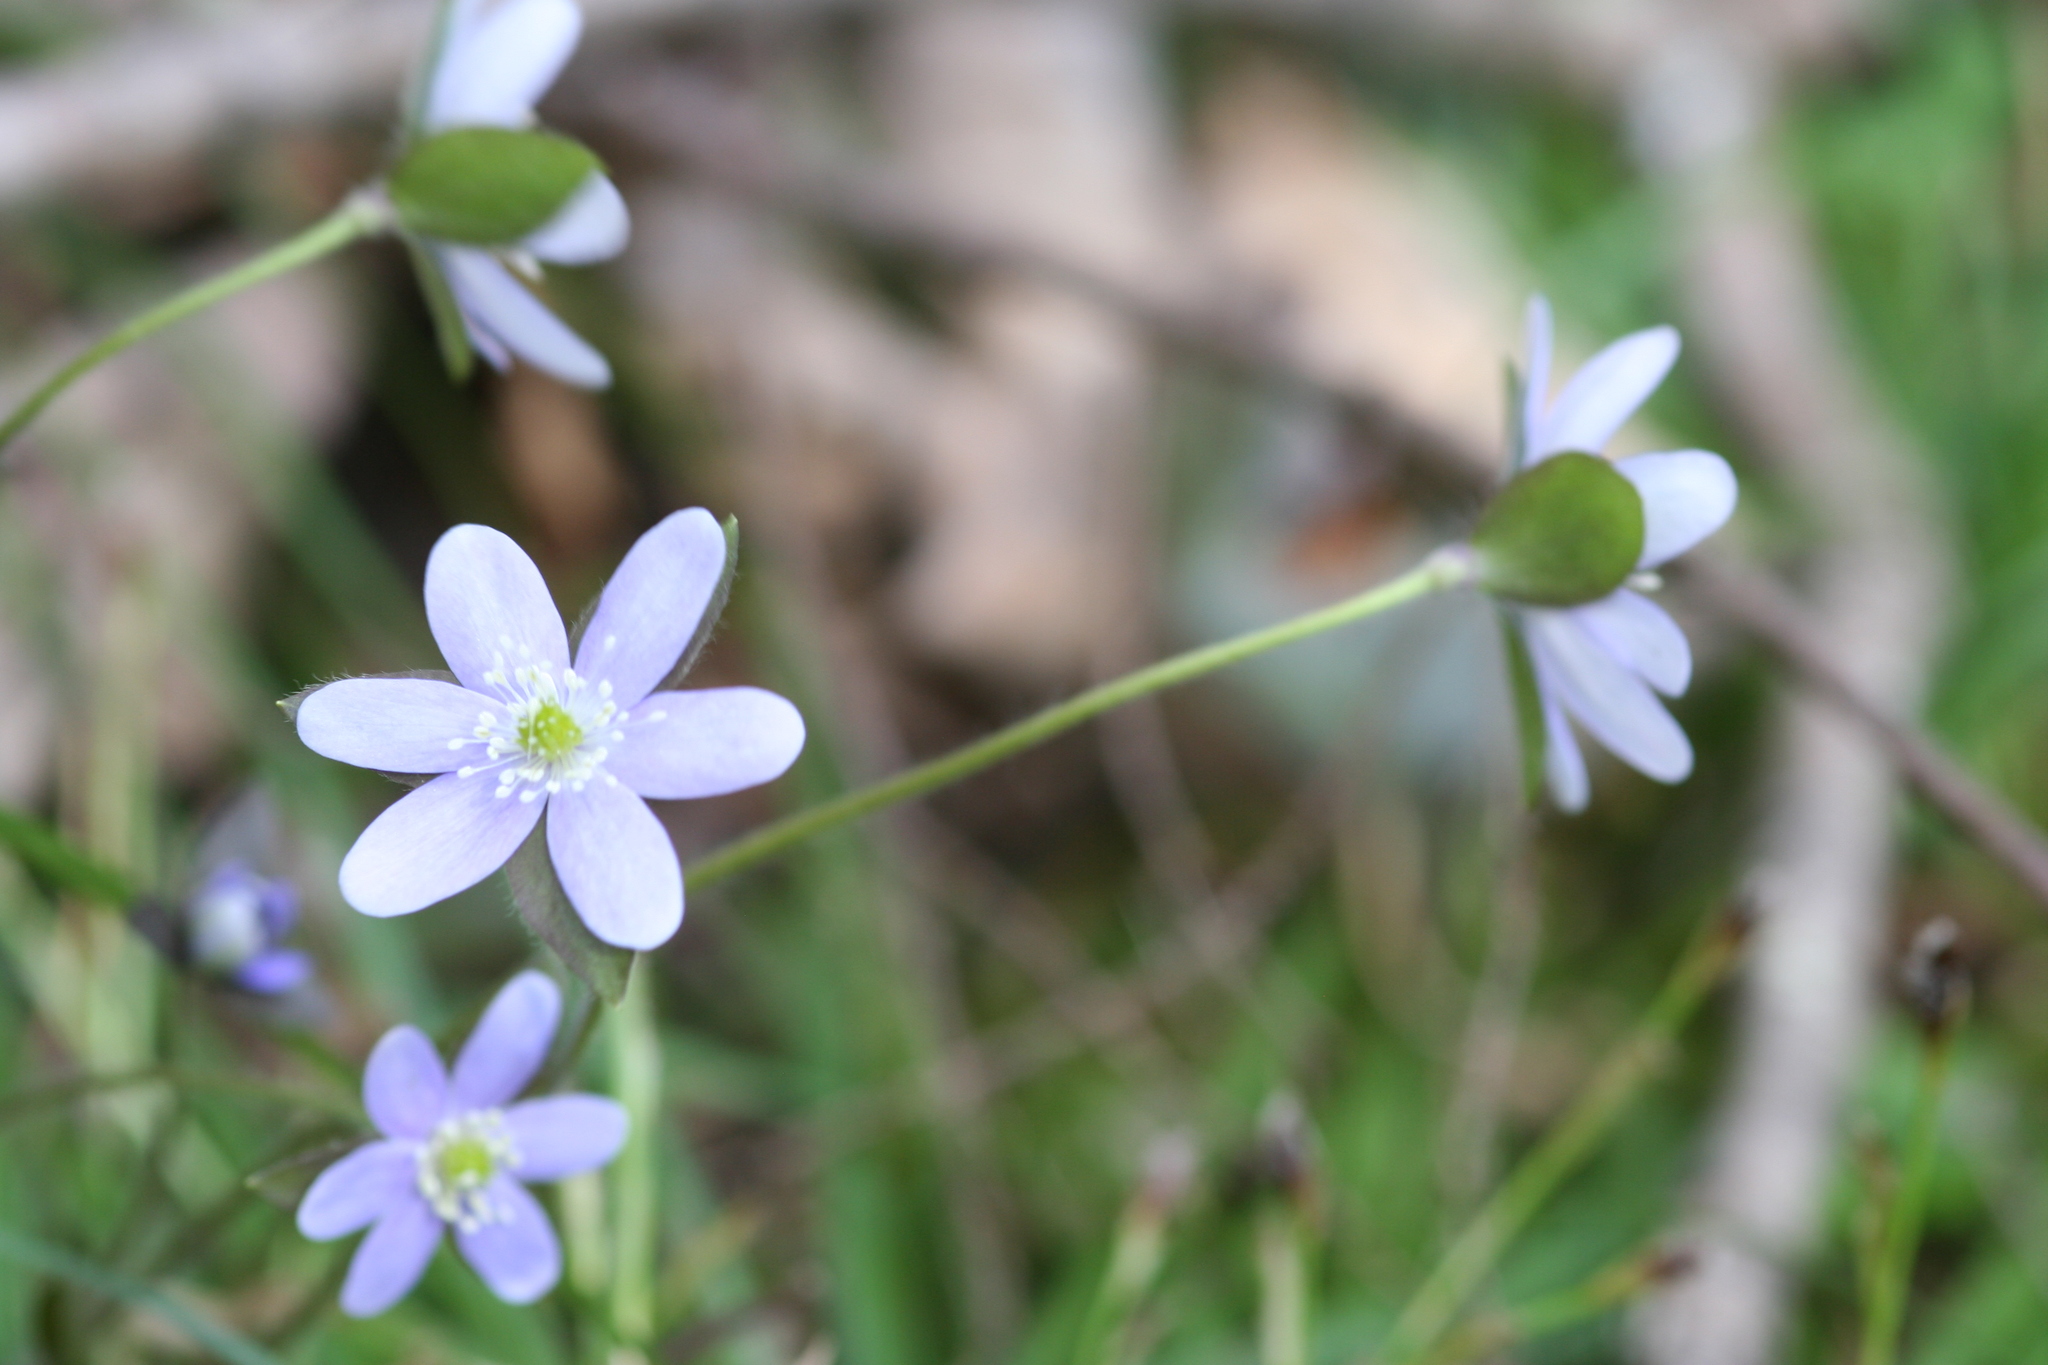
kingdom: Plantae
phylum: Tracheophyta
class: Magnoliopsida
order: Ranunculales
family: Ranunculaceae
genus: Hepatica
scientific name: Hepatica acutiloba
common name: Sharp-lobed hepatica
